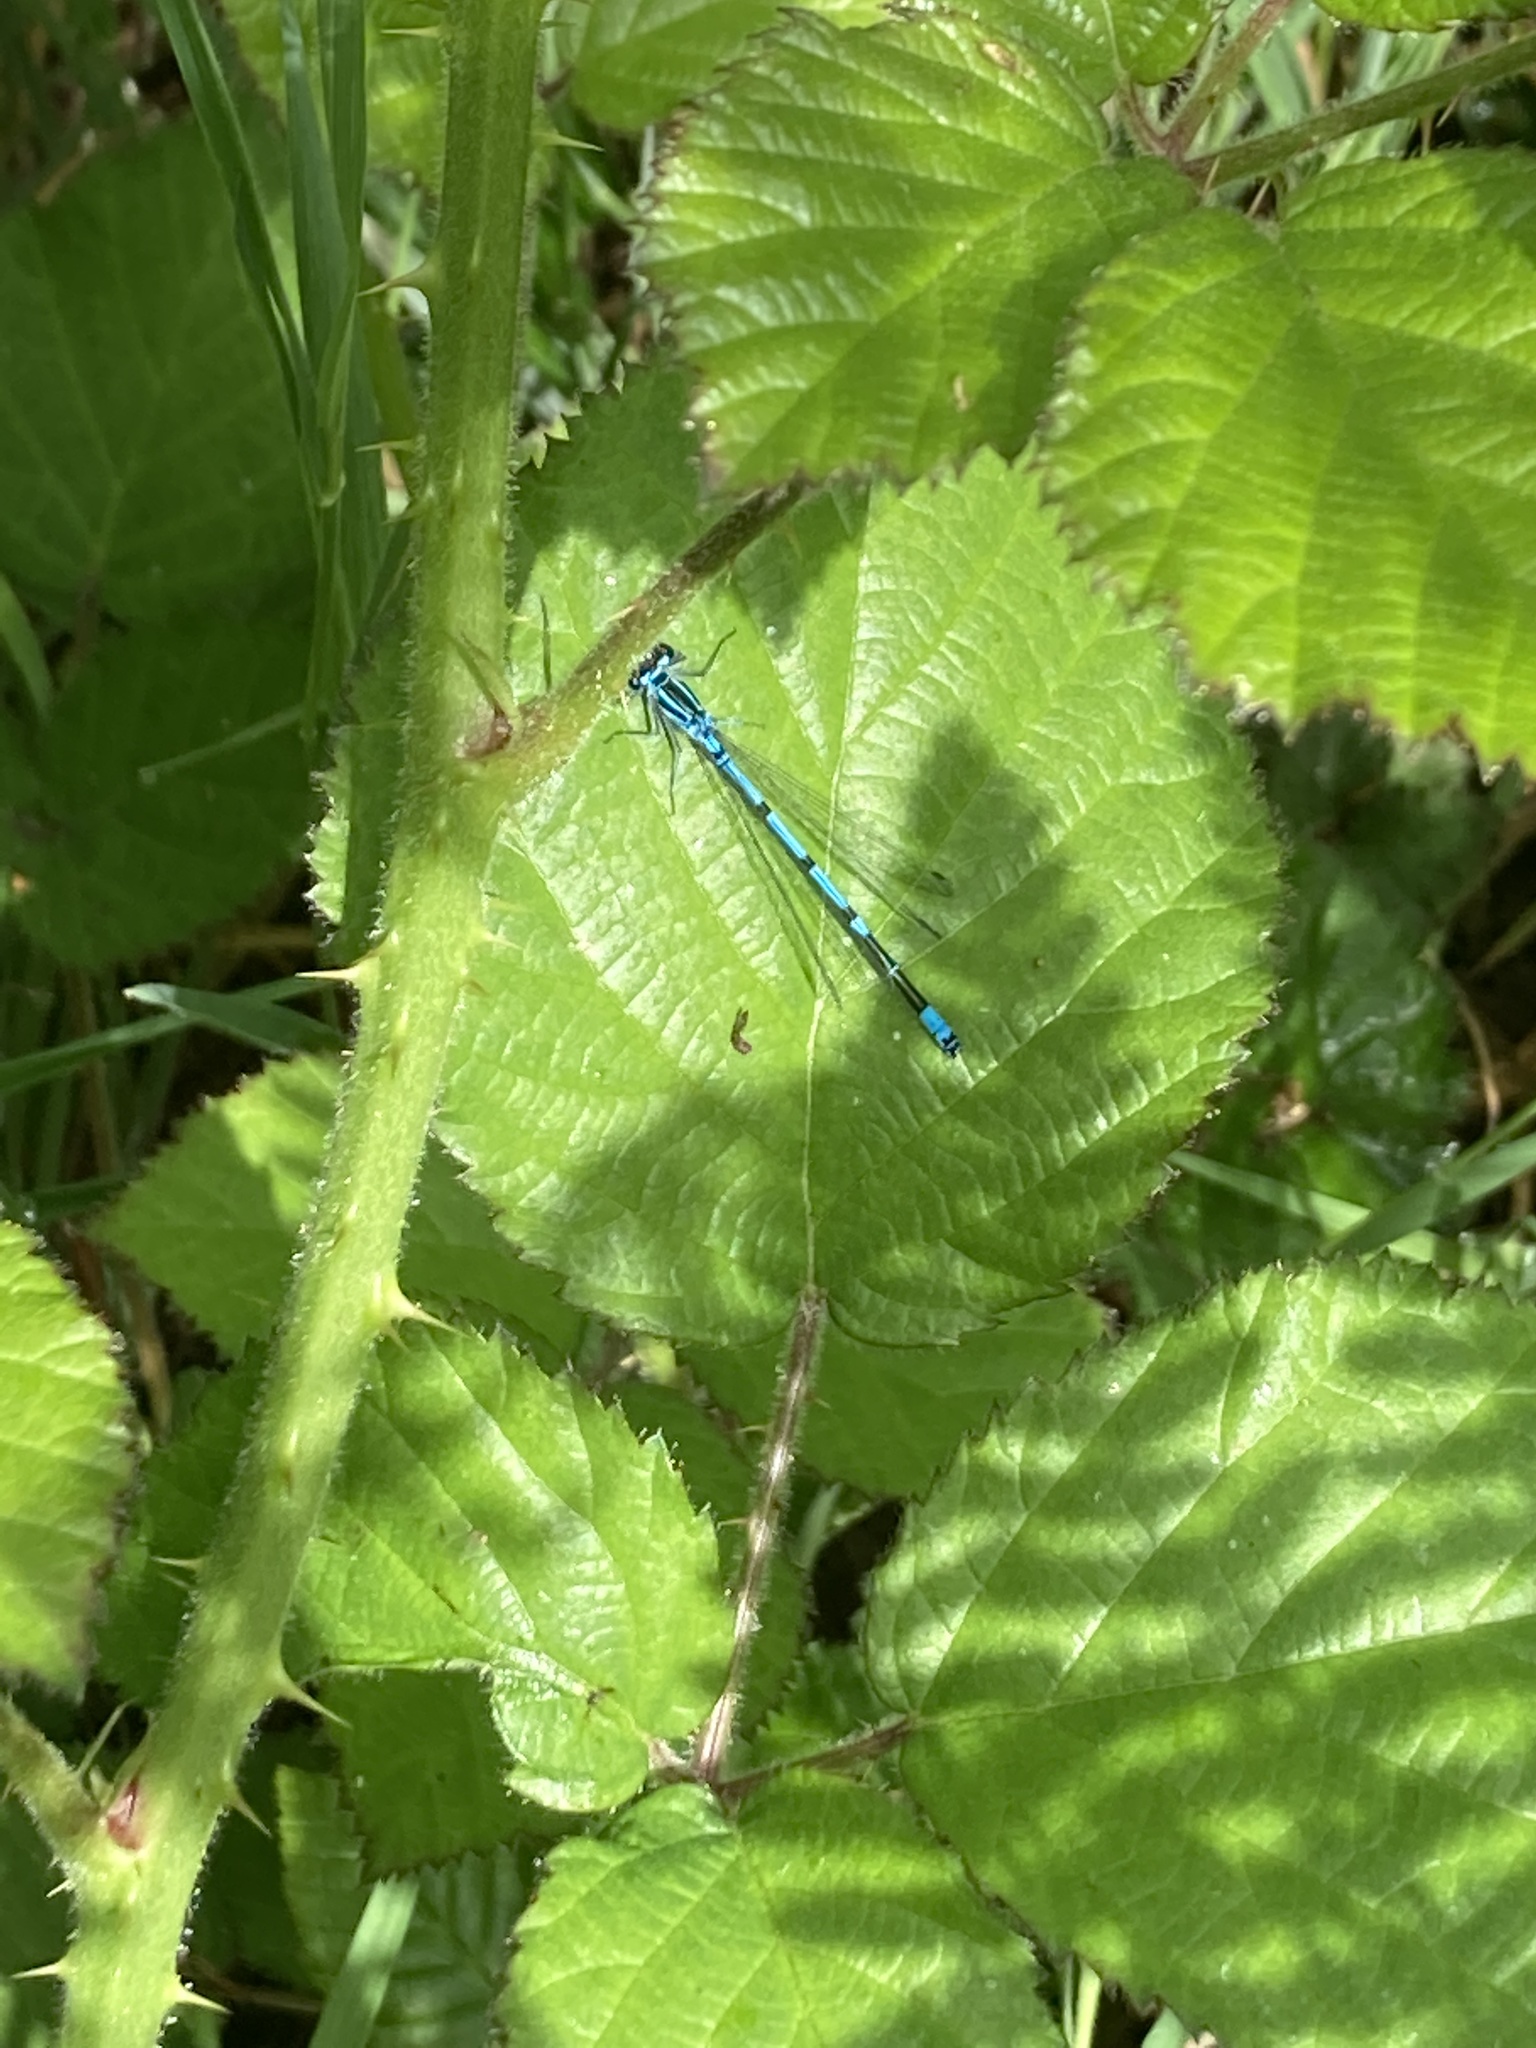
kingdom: Animalia
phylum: Arthropoda
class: Insecta
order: Odonata
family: Coenagrionidae
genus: Coenagrion
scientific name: Coenagrion puella
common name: Azure damselfly
